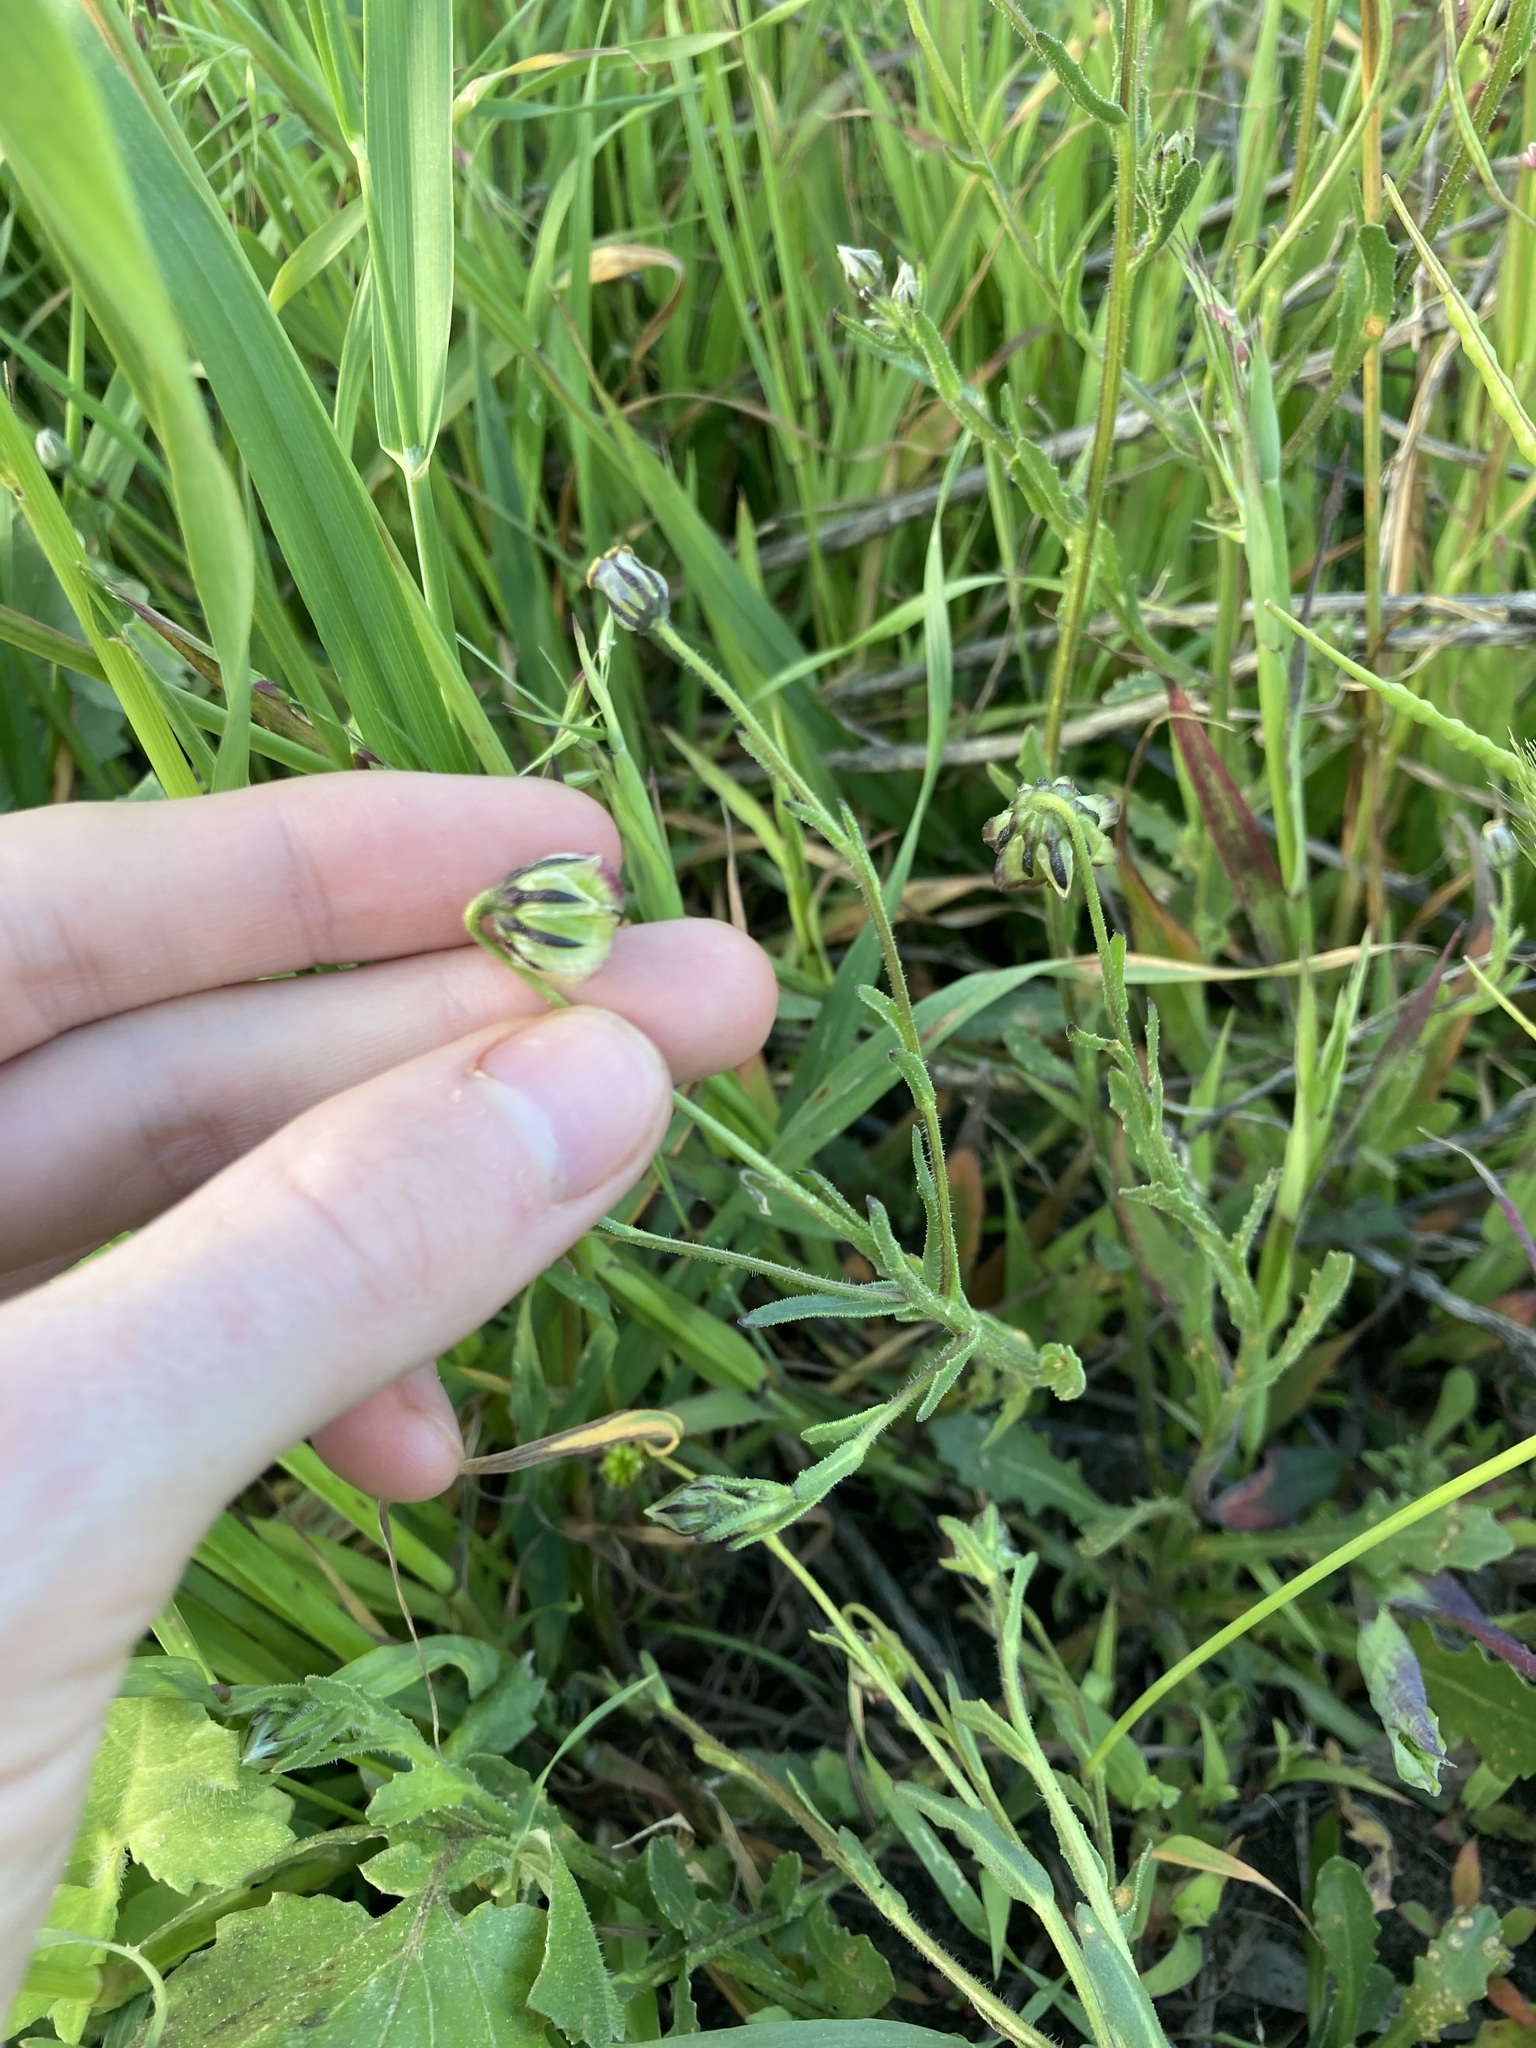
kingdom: Plantae
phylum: Tracheophyta
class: Magnoliopsida
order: Asterales
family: Asteraceae
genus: Osteospermum
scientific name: Osteospermum monstrosum
